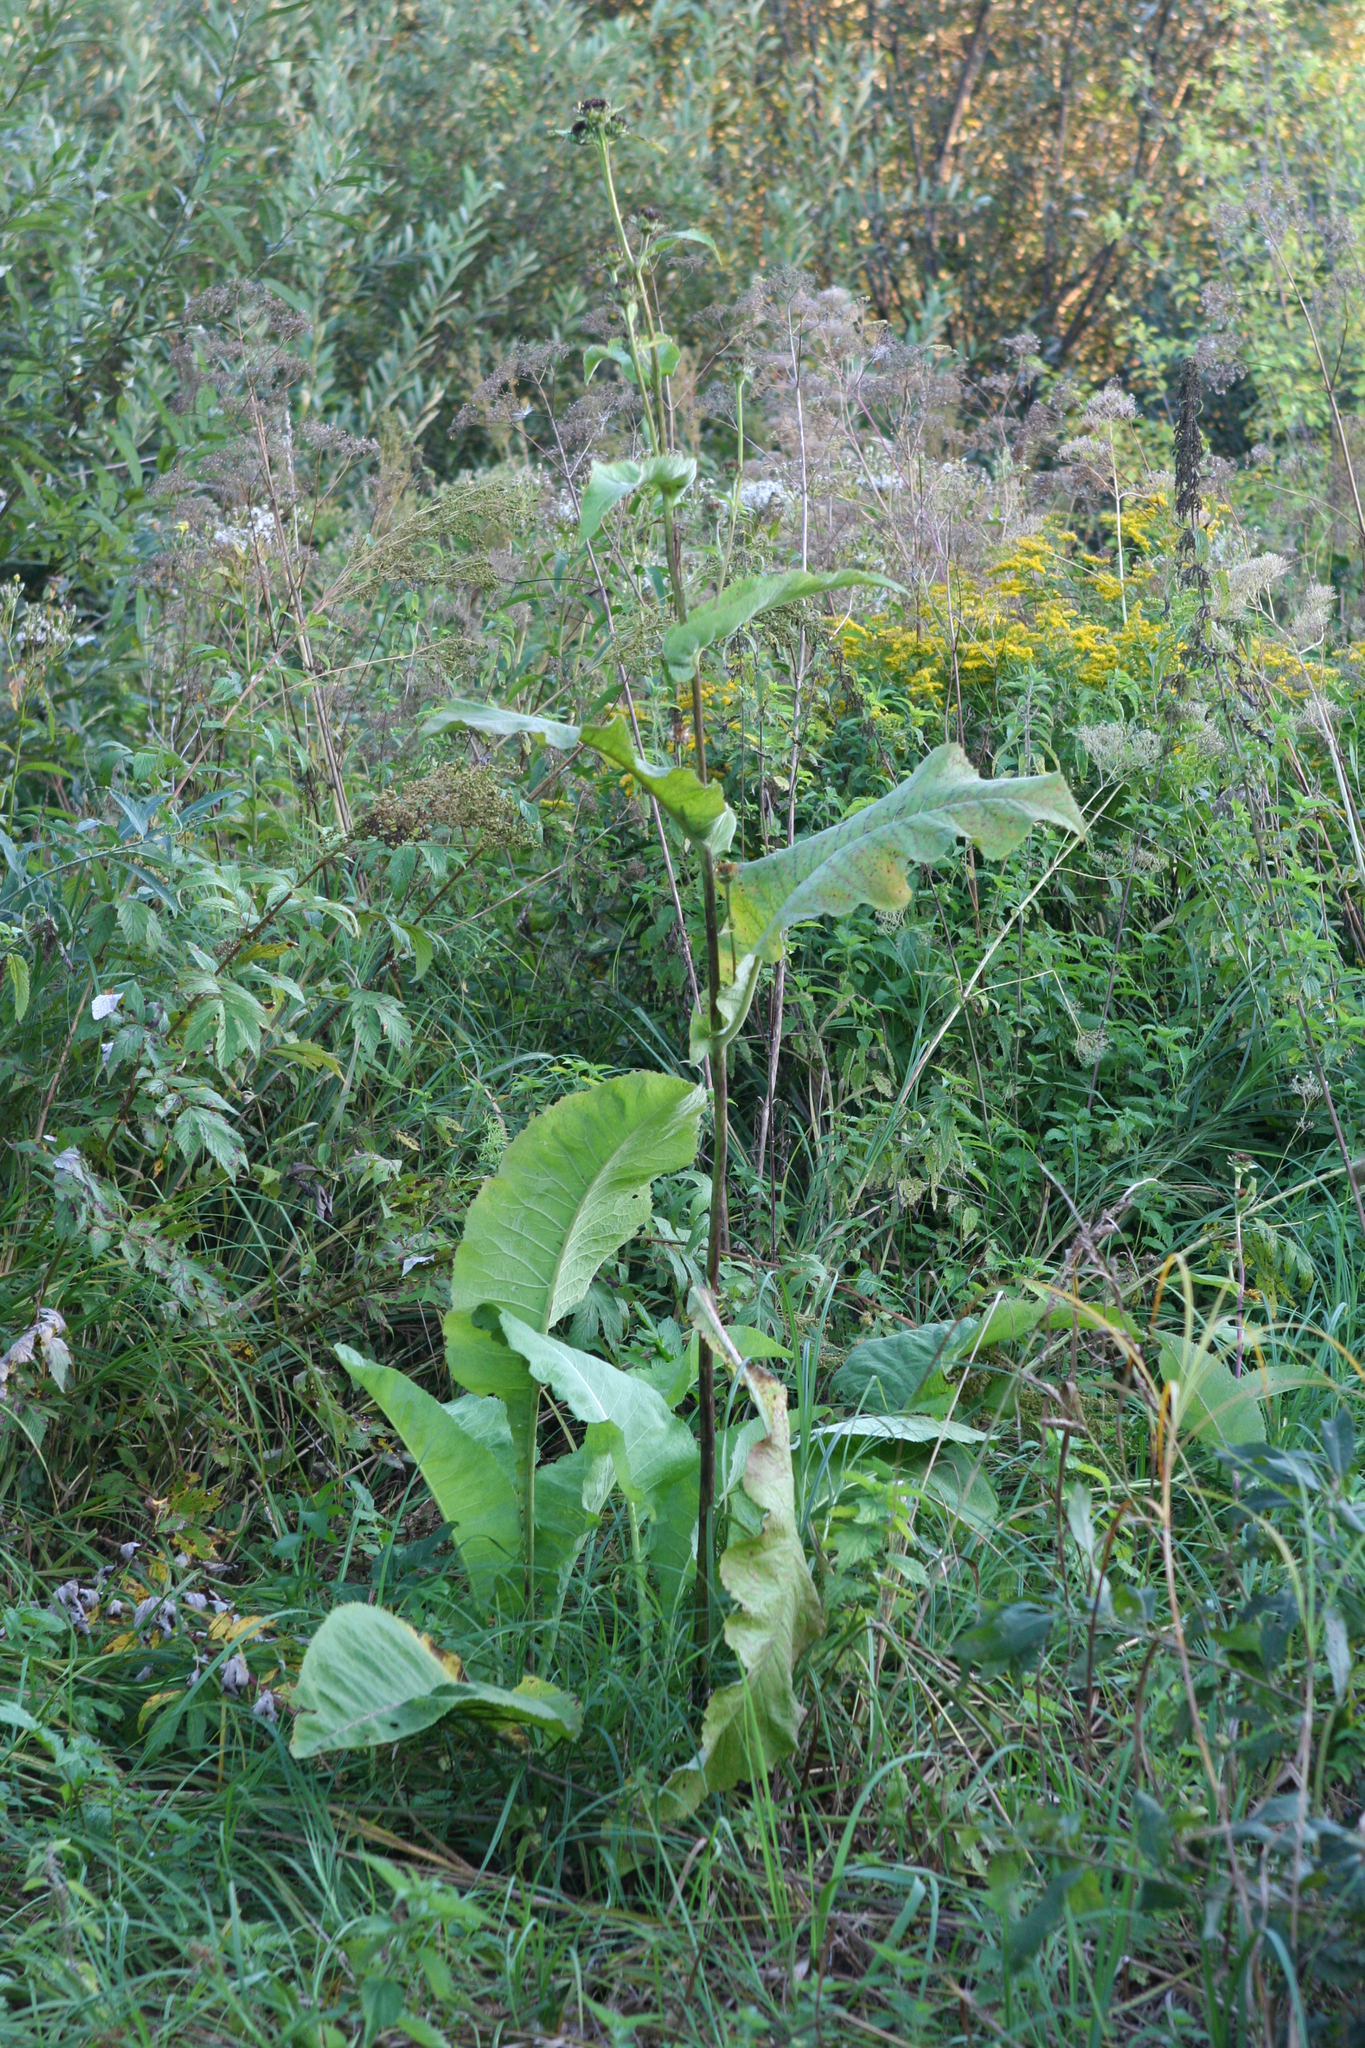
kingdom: Plantae
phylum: Tracheophyta
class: Magnoliopsida
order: Asterales
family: Asteraceae
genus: Inula
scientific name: Inula helenium
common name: Elecampane
